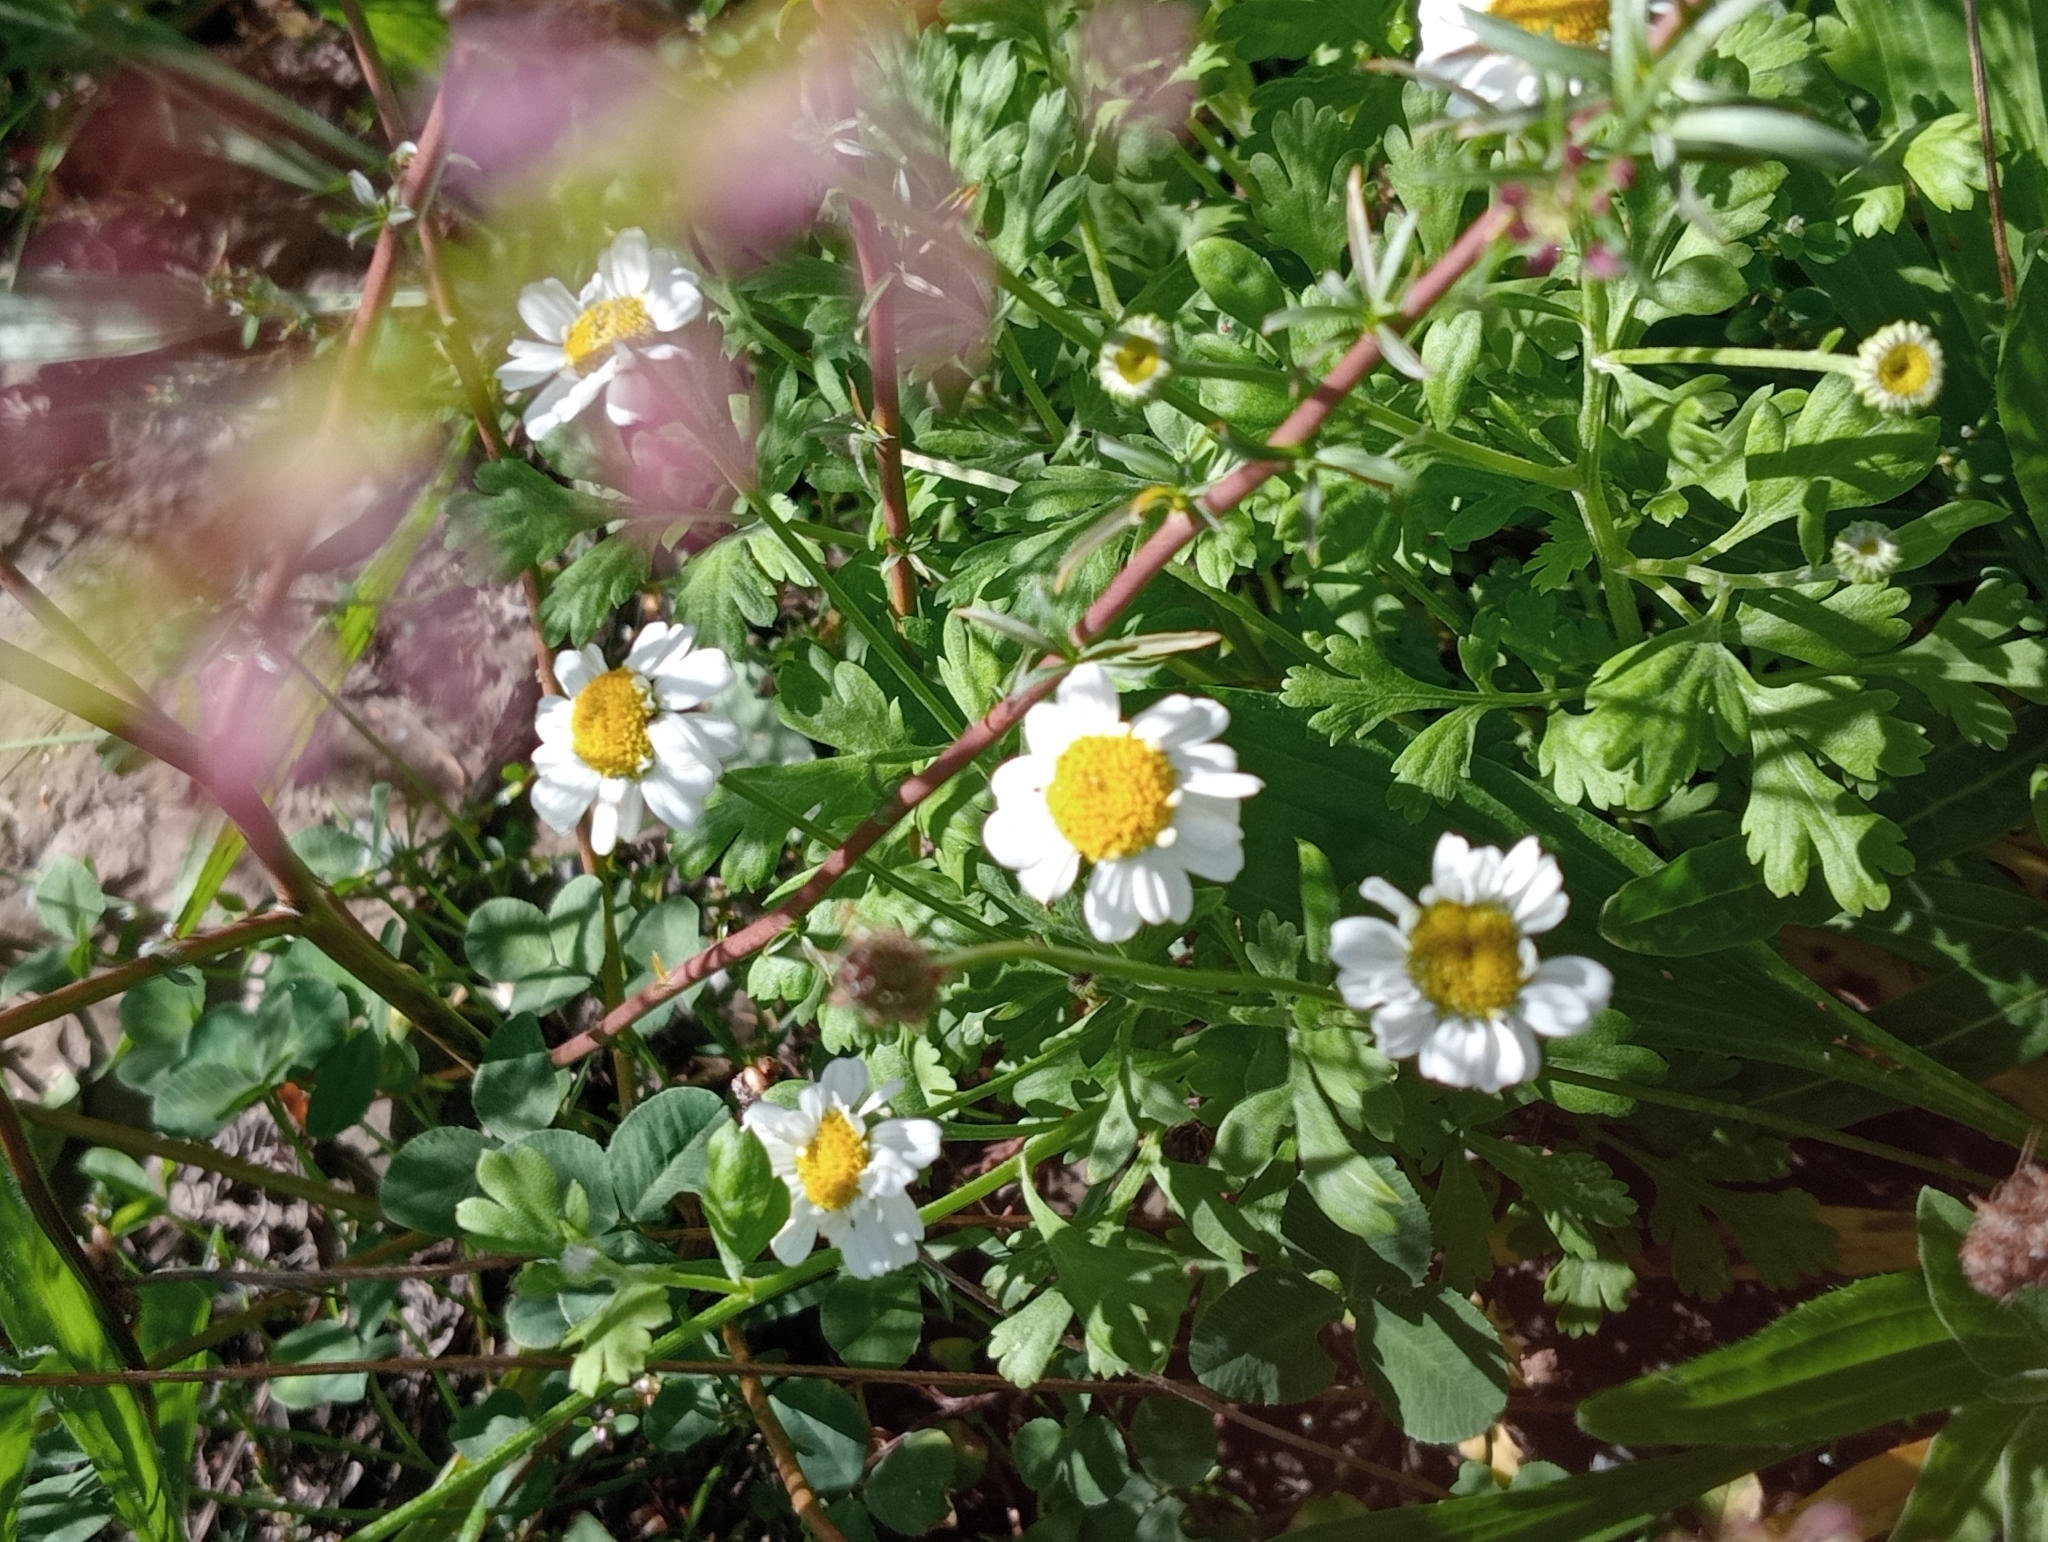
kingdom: Plantae
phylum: Tracheophyta
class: Magnoliopsida
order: Asterales
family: Asteraceae
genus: Tanacetum
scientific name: Tanacetum parthenium
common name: Feverfew
